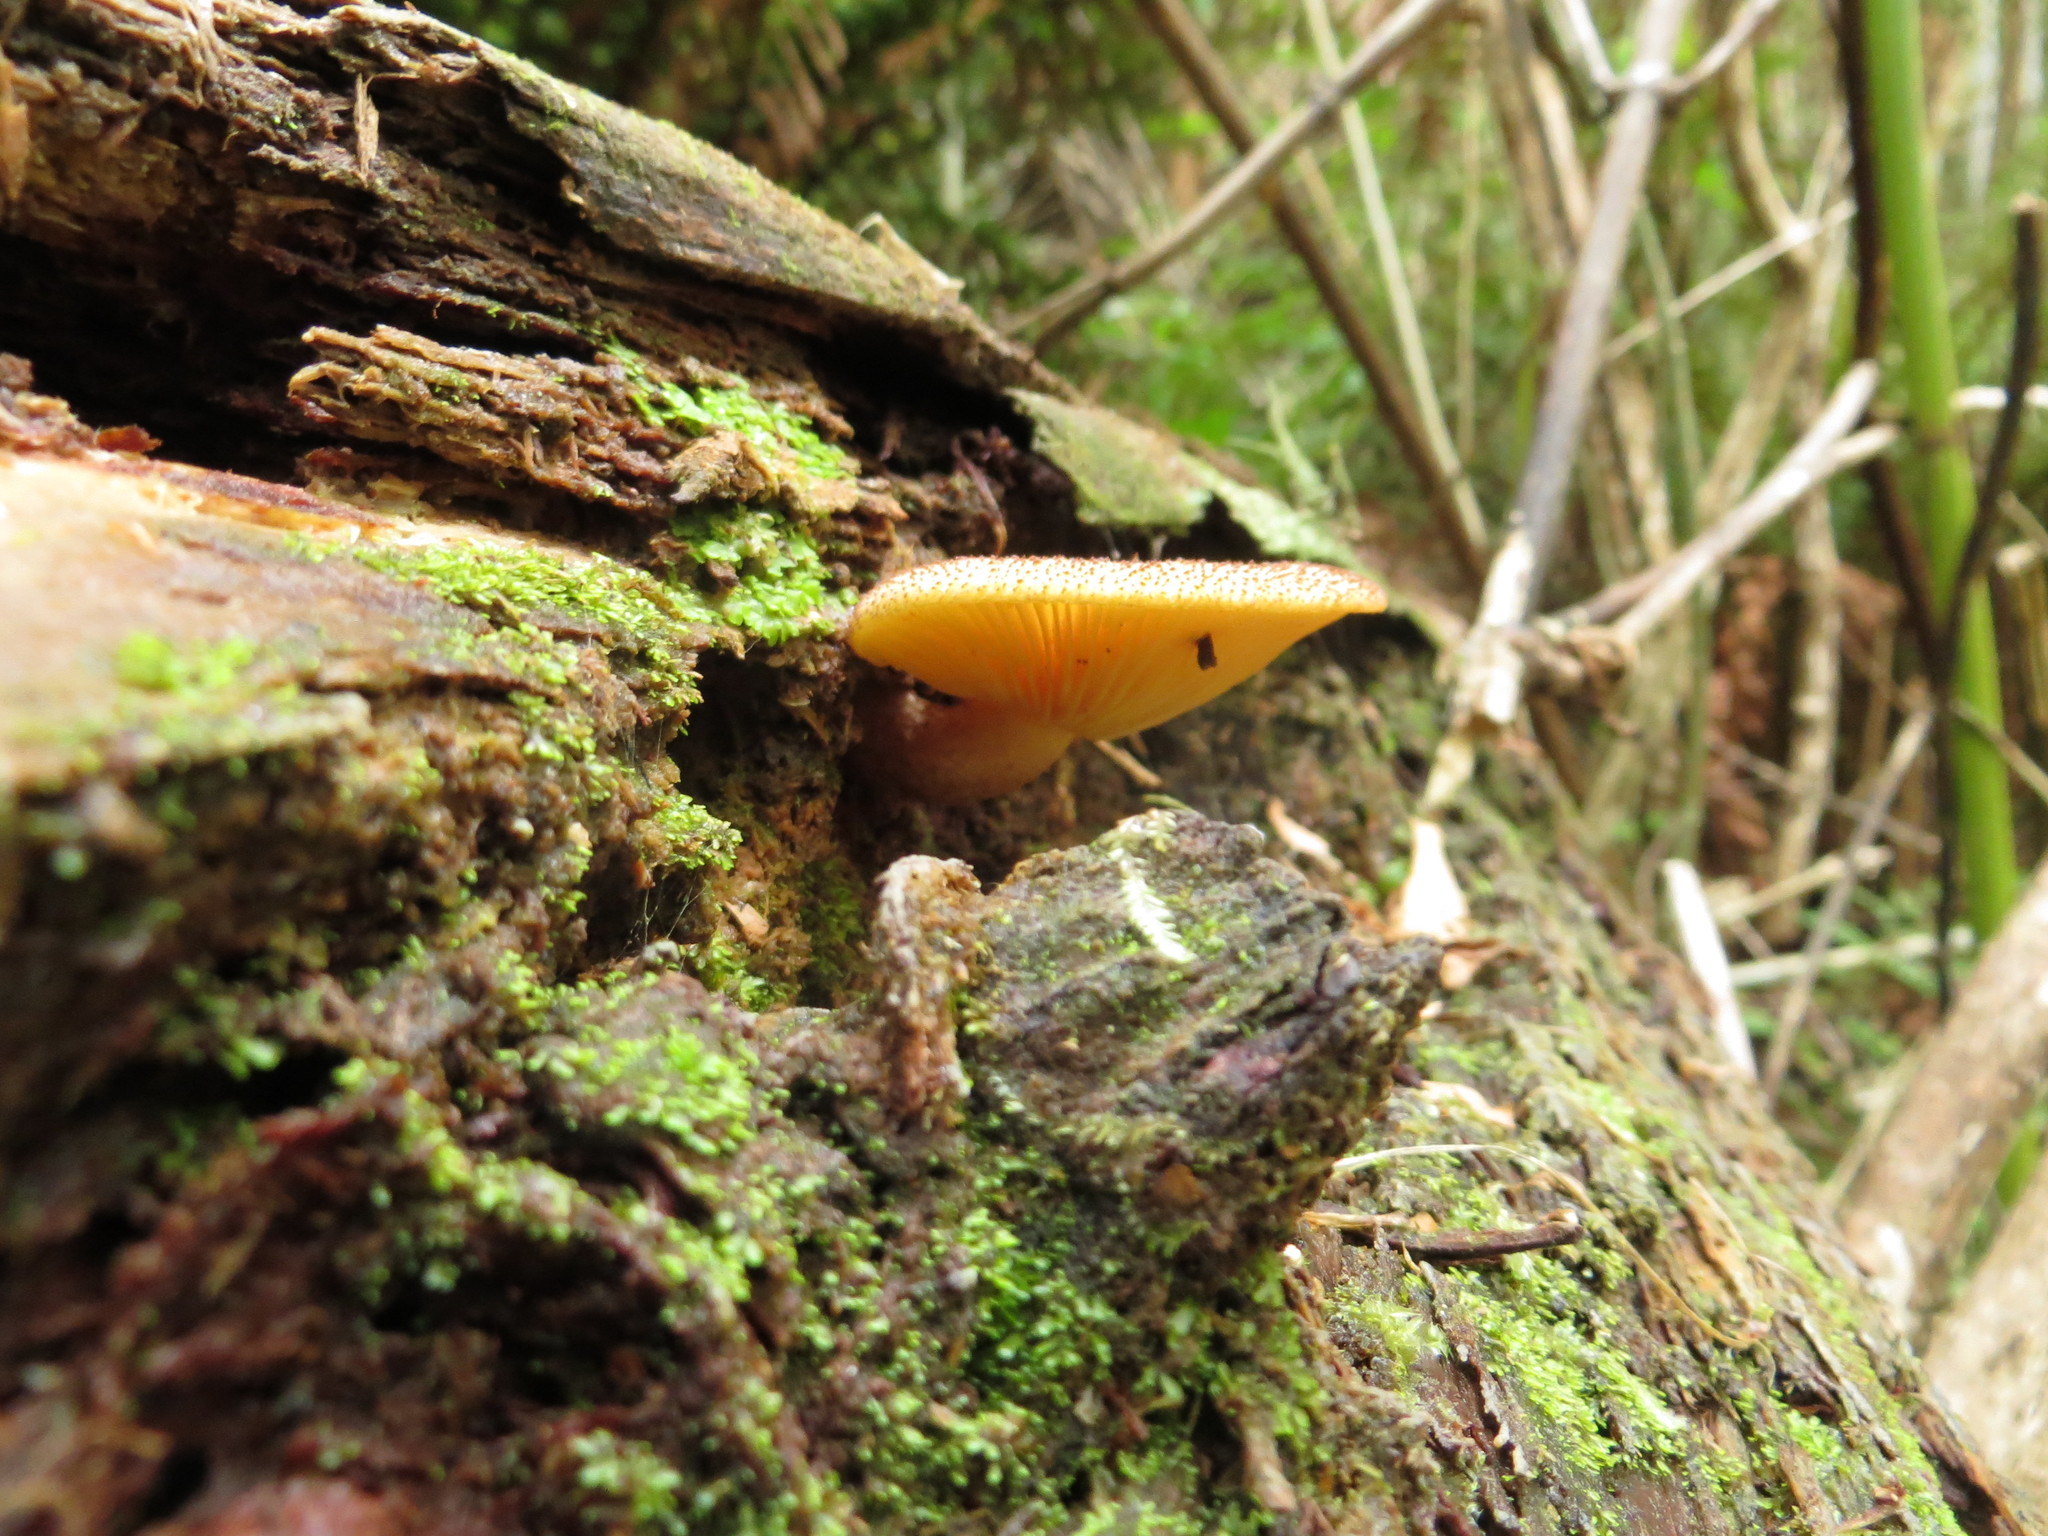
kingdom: Fungi
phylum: Basidiomycota
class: Agaricomycetes
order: Agaricales
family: Tricholomataceae
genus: Tricholomopsis
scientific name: Tricholomopsis ornaticeps
